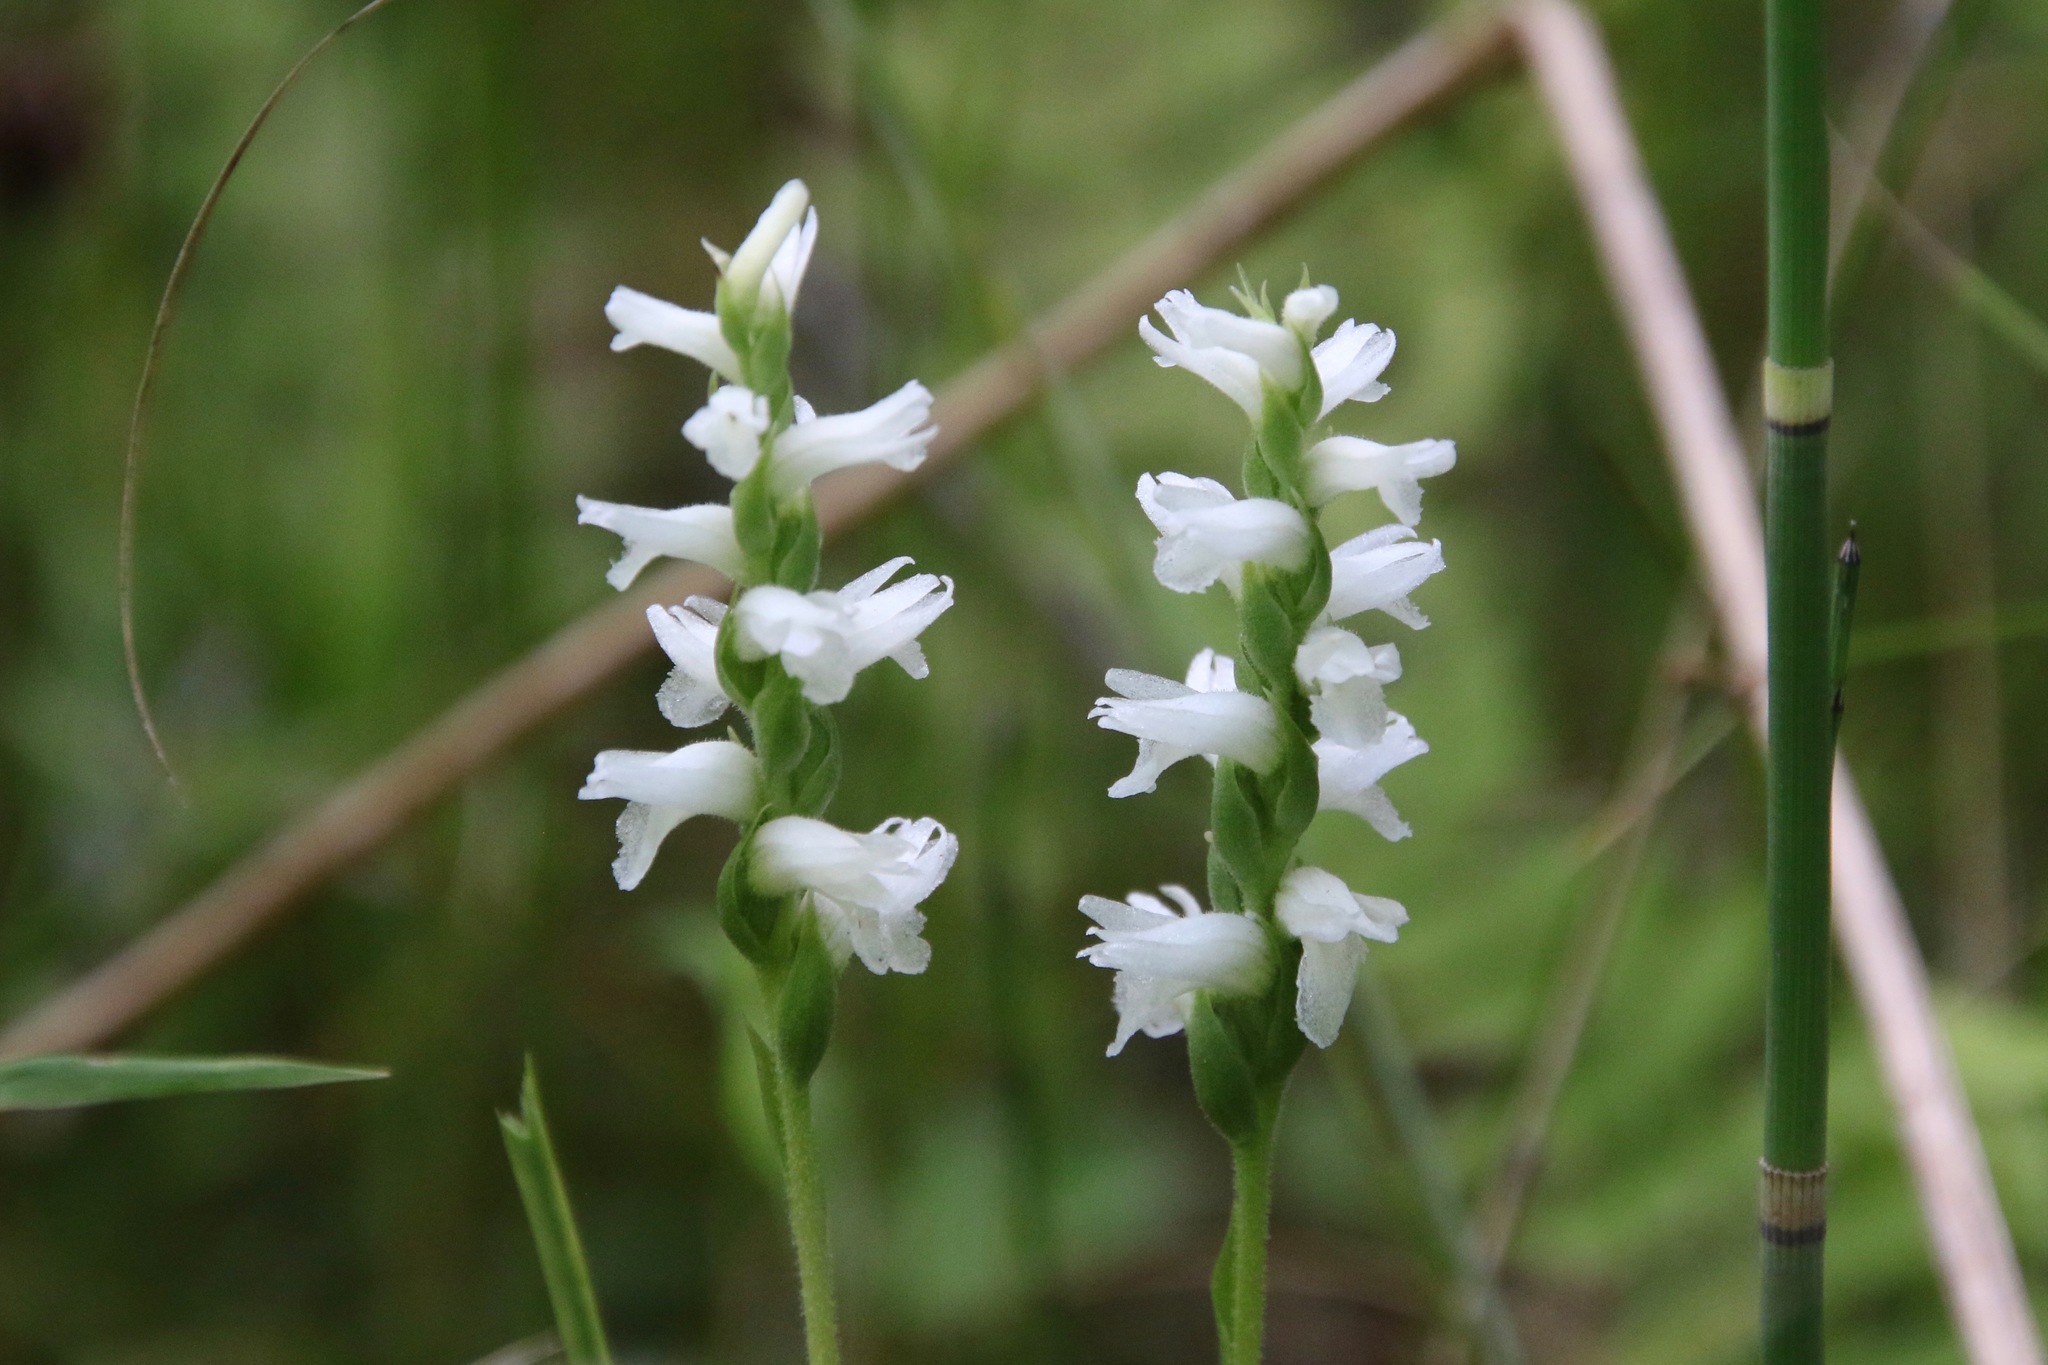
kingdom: Plantae
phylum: Tracheophyta
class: Liliopsida
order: Asparagales
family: Orchidaceae
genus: Spiranthes
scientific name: Spiranthes incurva
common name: Sphinx ladies'-tresses
